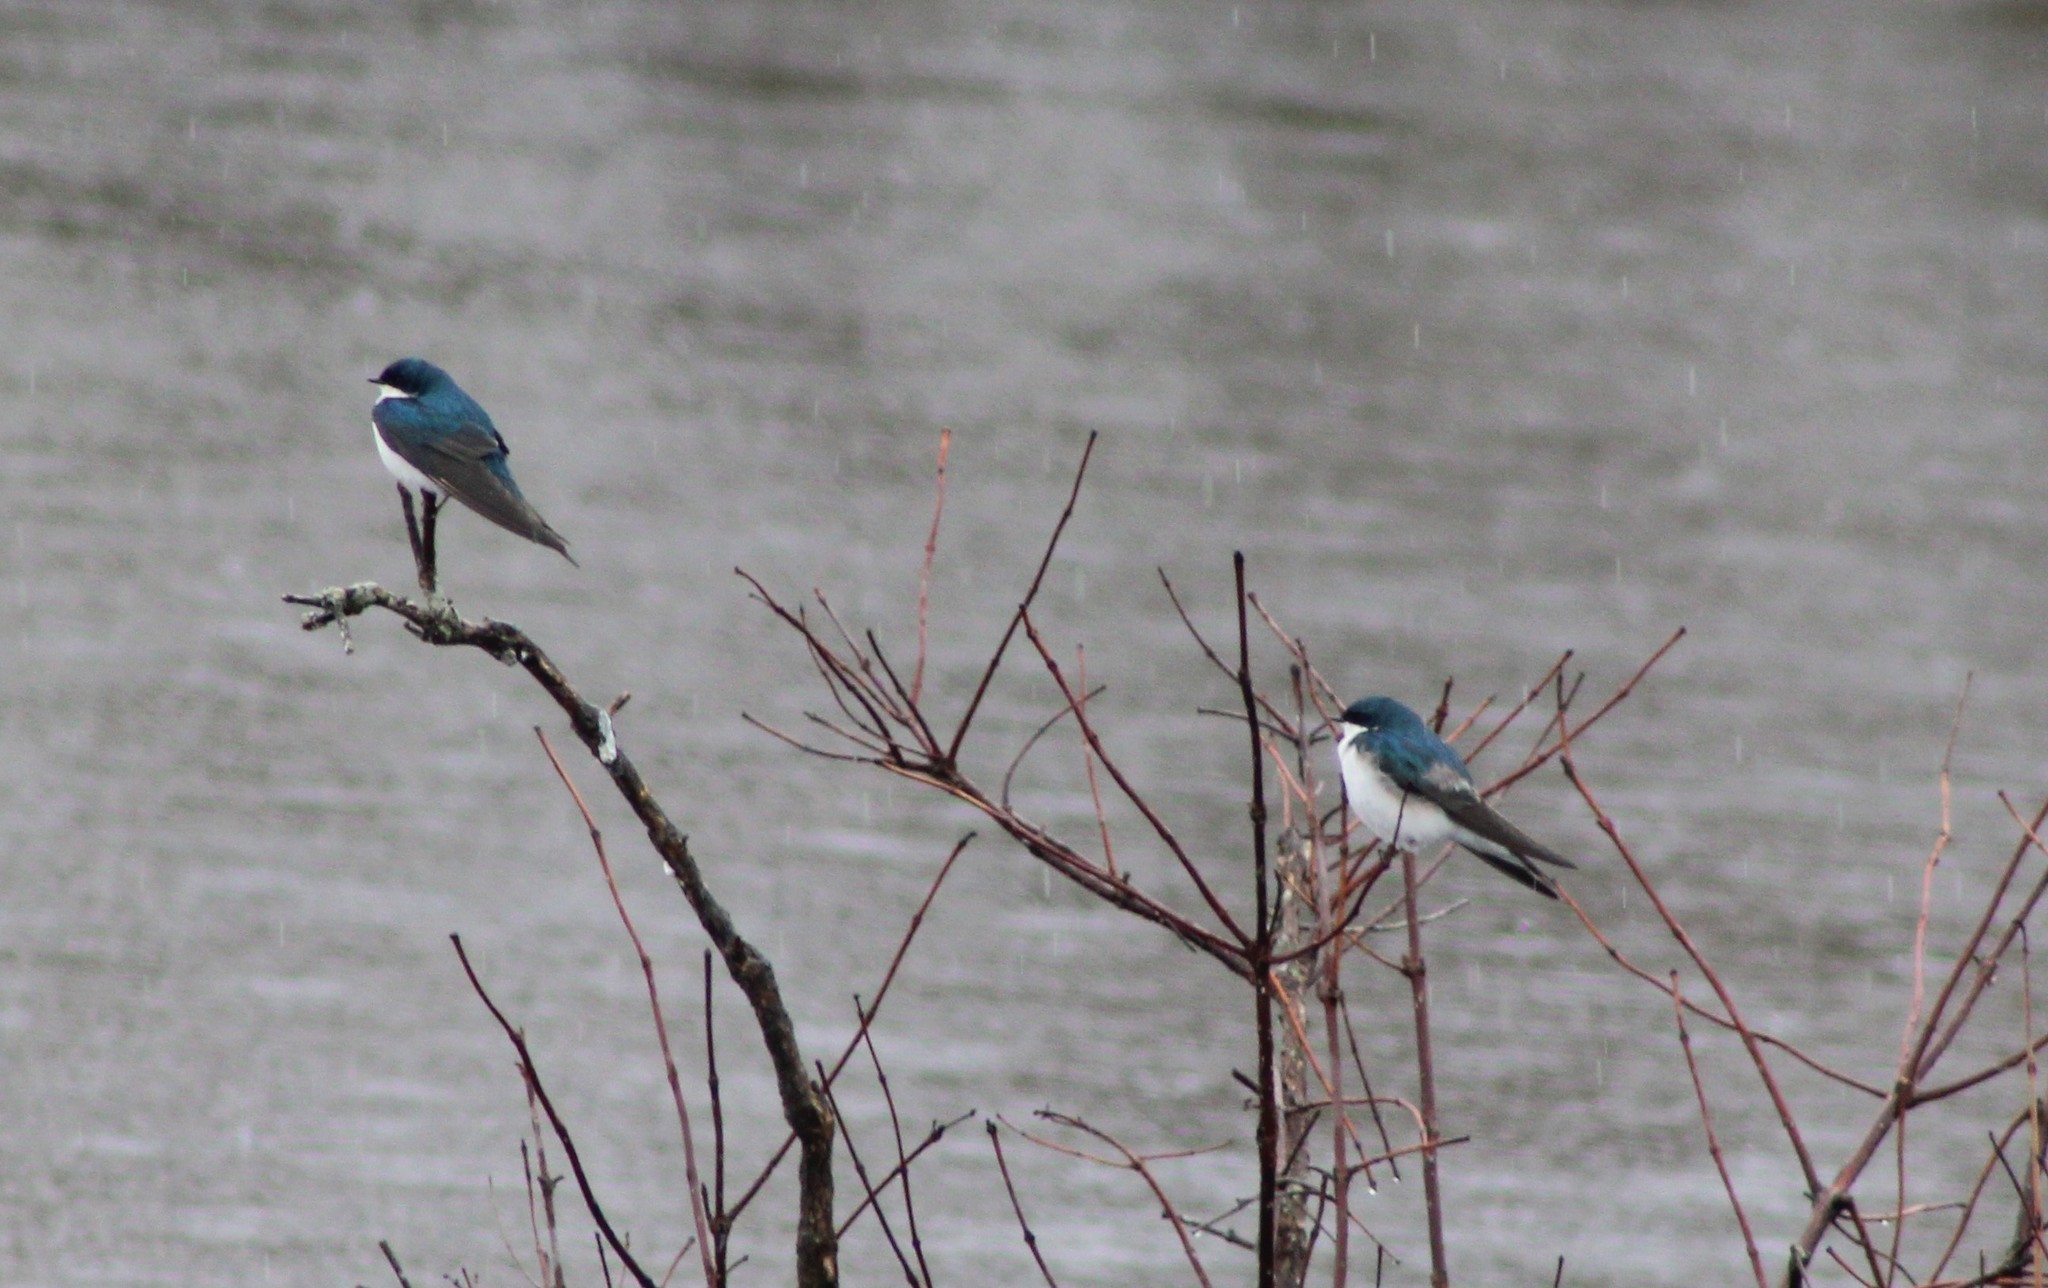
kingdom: Animalia
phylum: Chordata
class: Aves
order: Passeriformes
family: Hirundinidae
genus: Tachycineta
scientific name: Tachycineta bicolor
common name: Tree swallow
